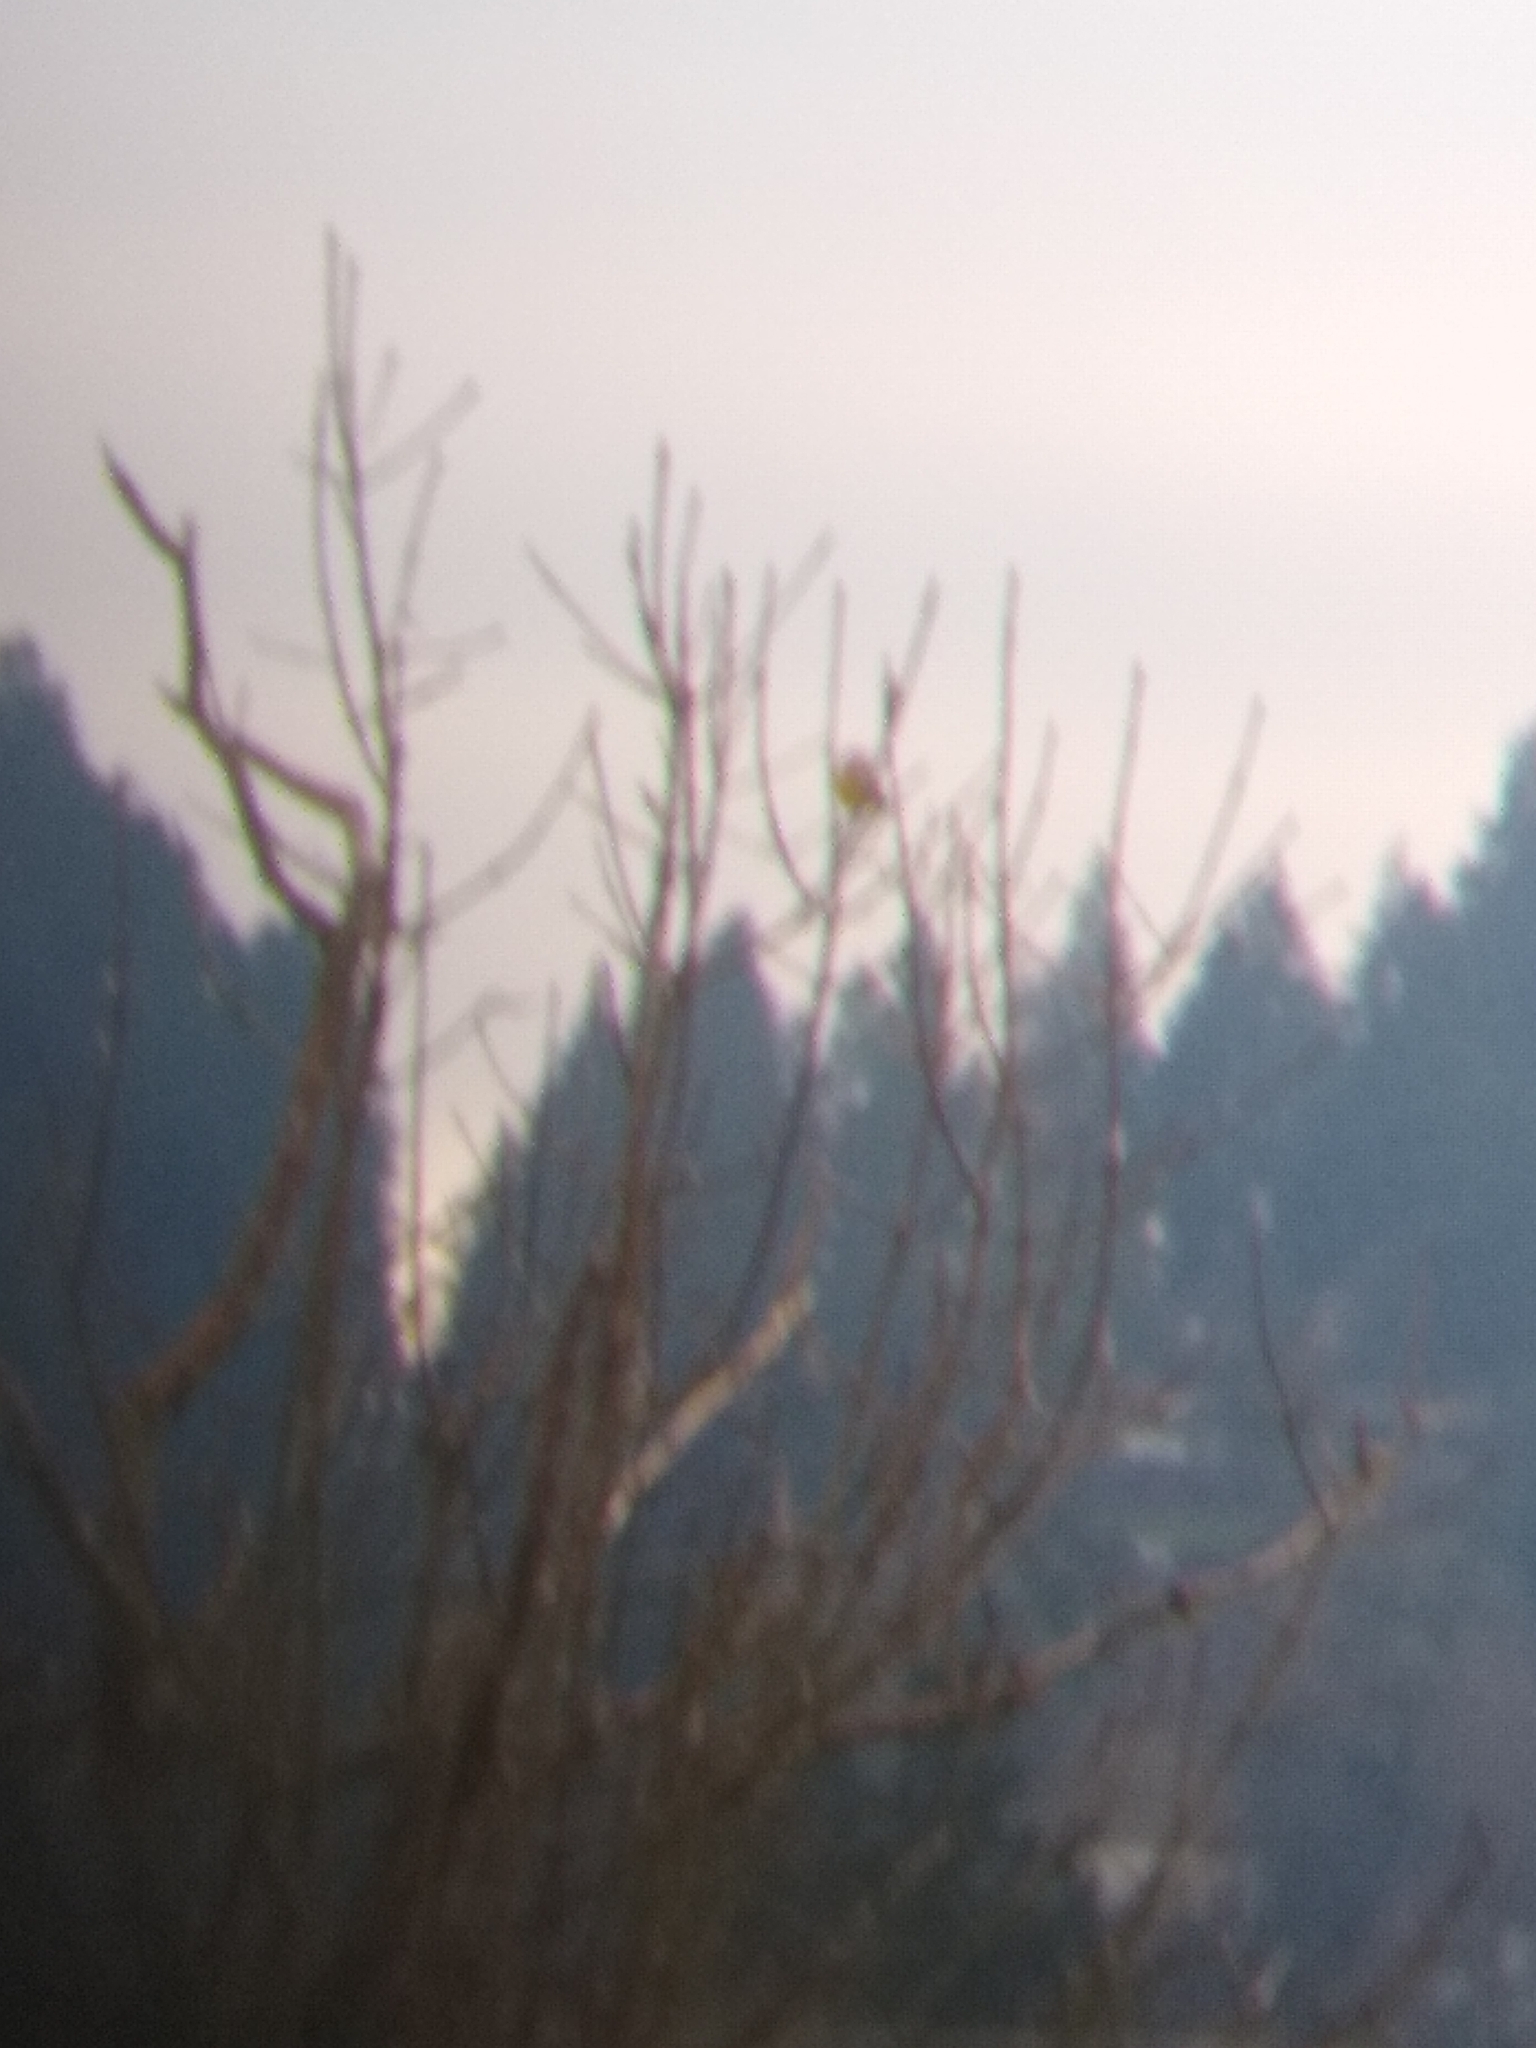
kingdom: Animalia
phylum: Chordata
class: Aves
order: Passeriformes
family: Icteridae
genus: Sturnella
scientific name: Sturnella neglecta
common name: Western meadowlark
